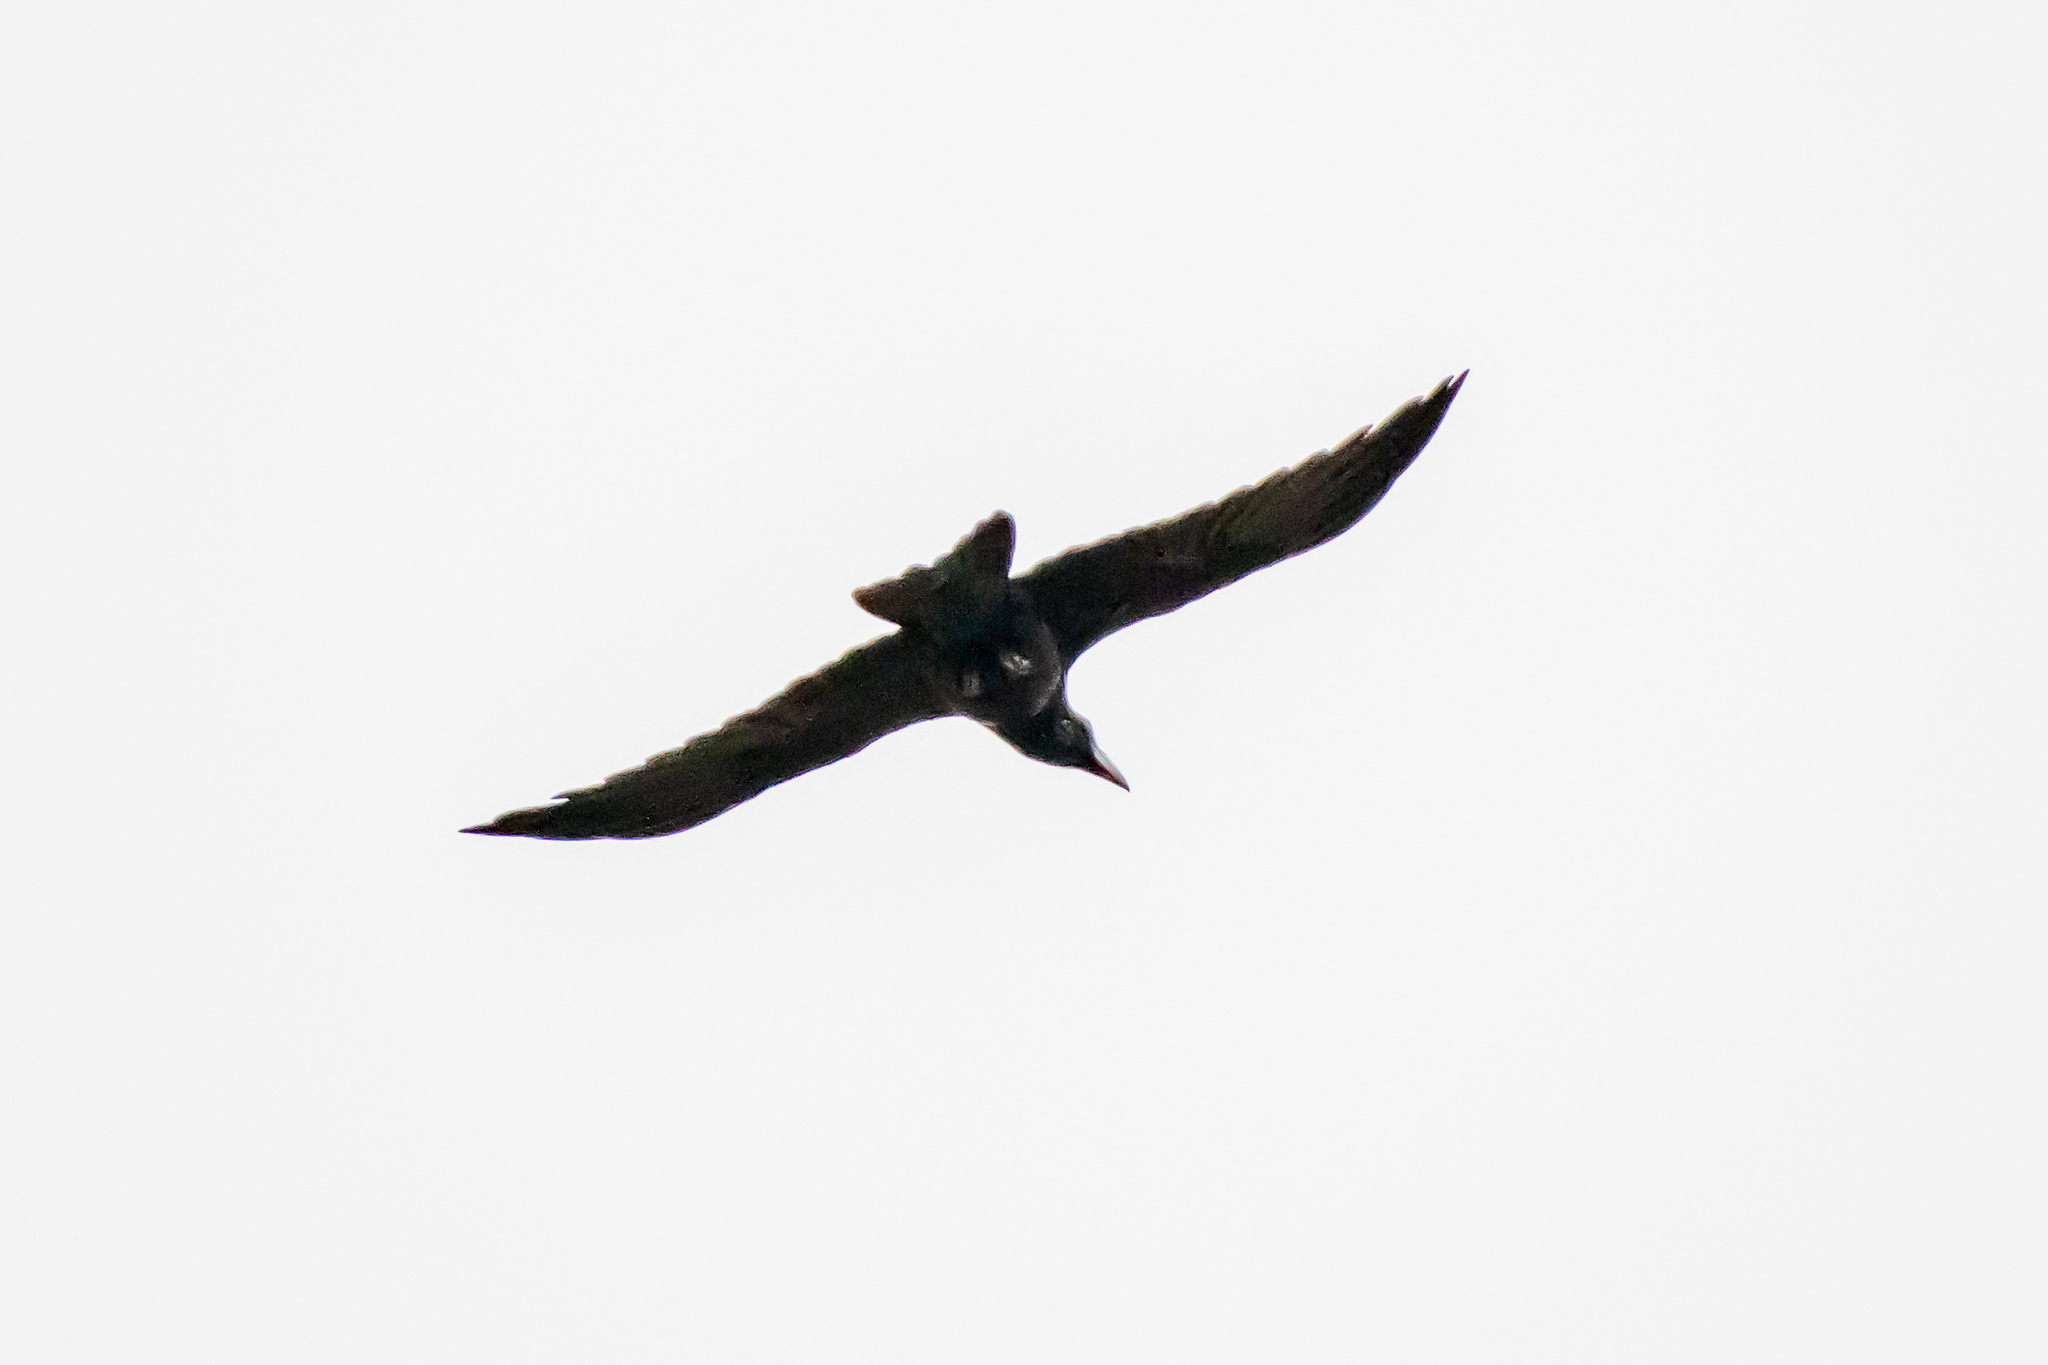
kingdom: Animalia
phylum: Chordata
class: Aves
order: Passeriformes
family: Corvidae
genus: Corvus
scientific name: Corvus corax
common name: Common raven
